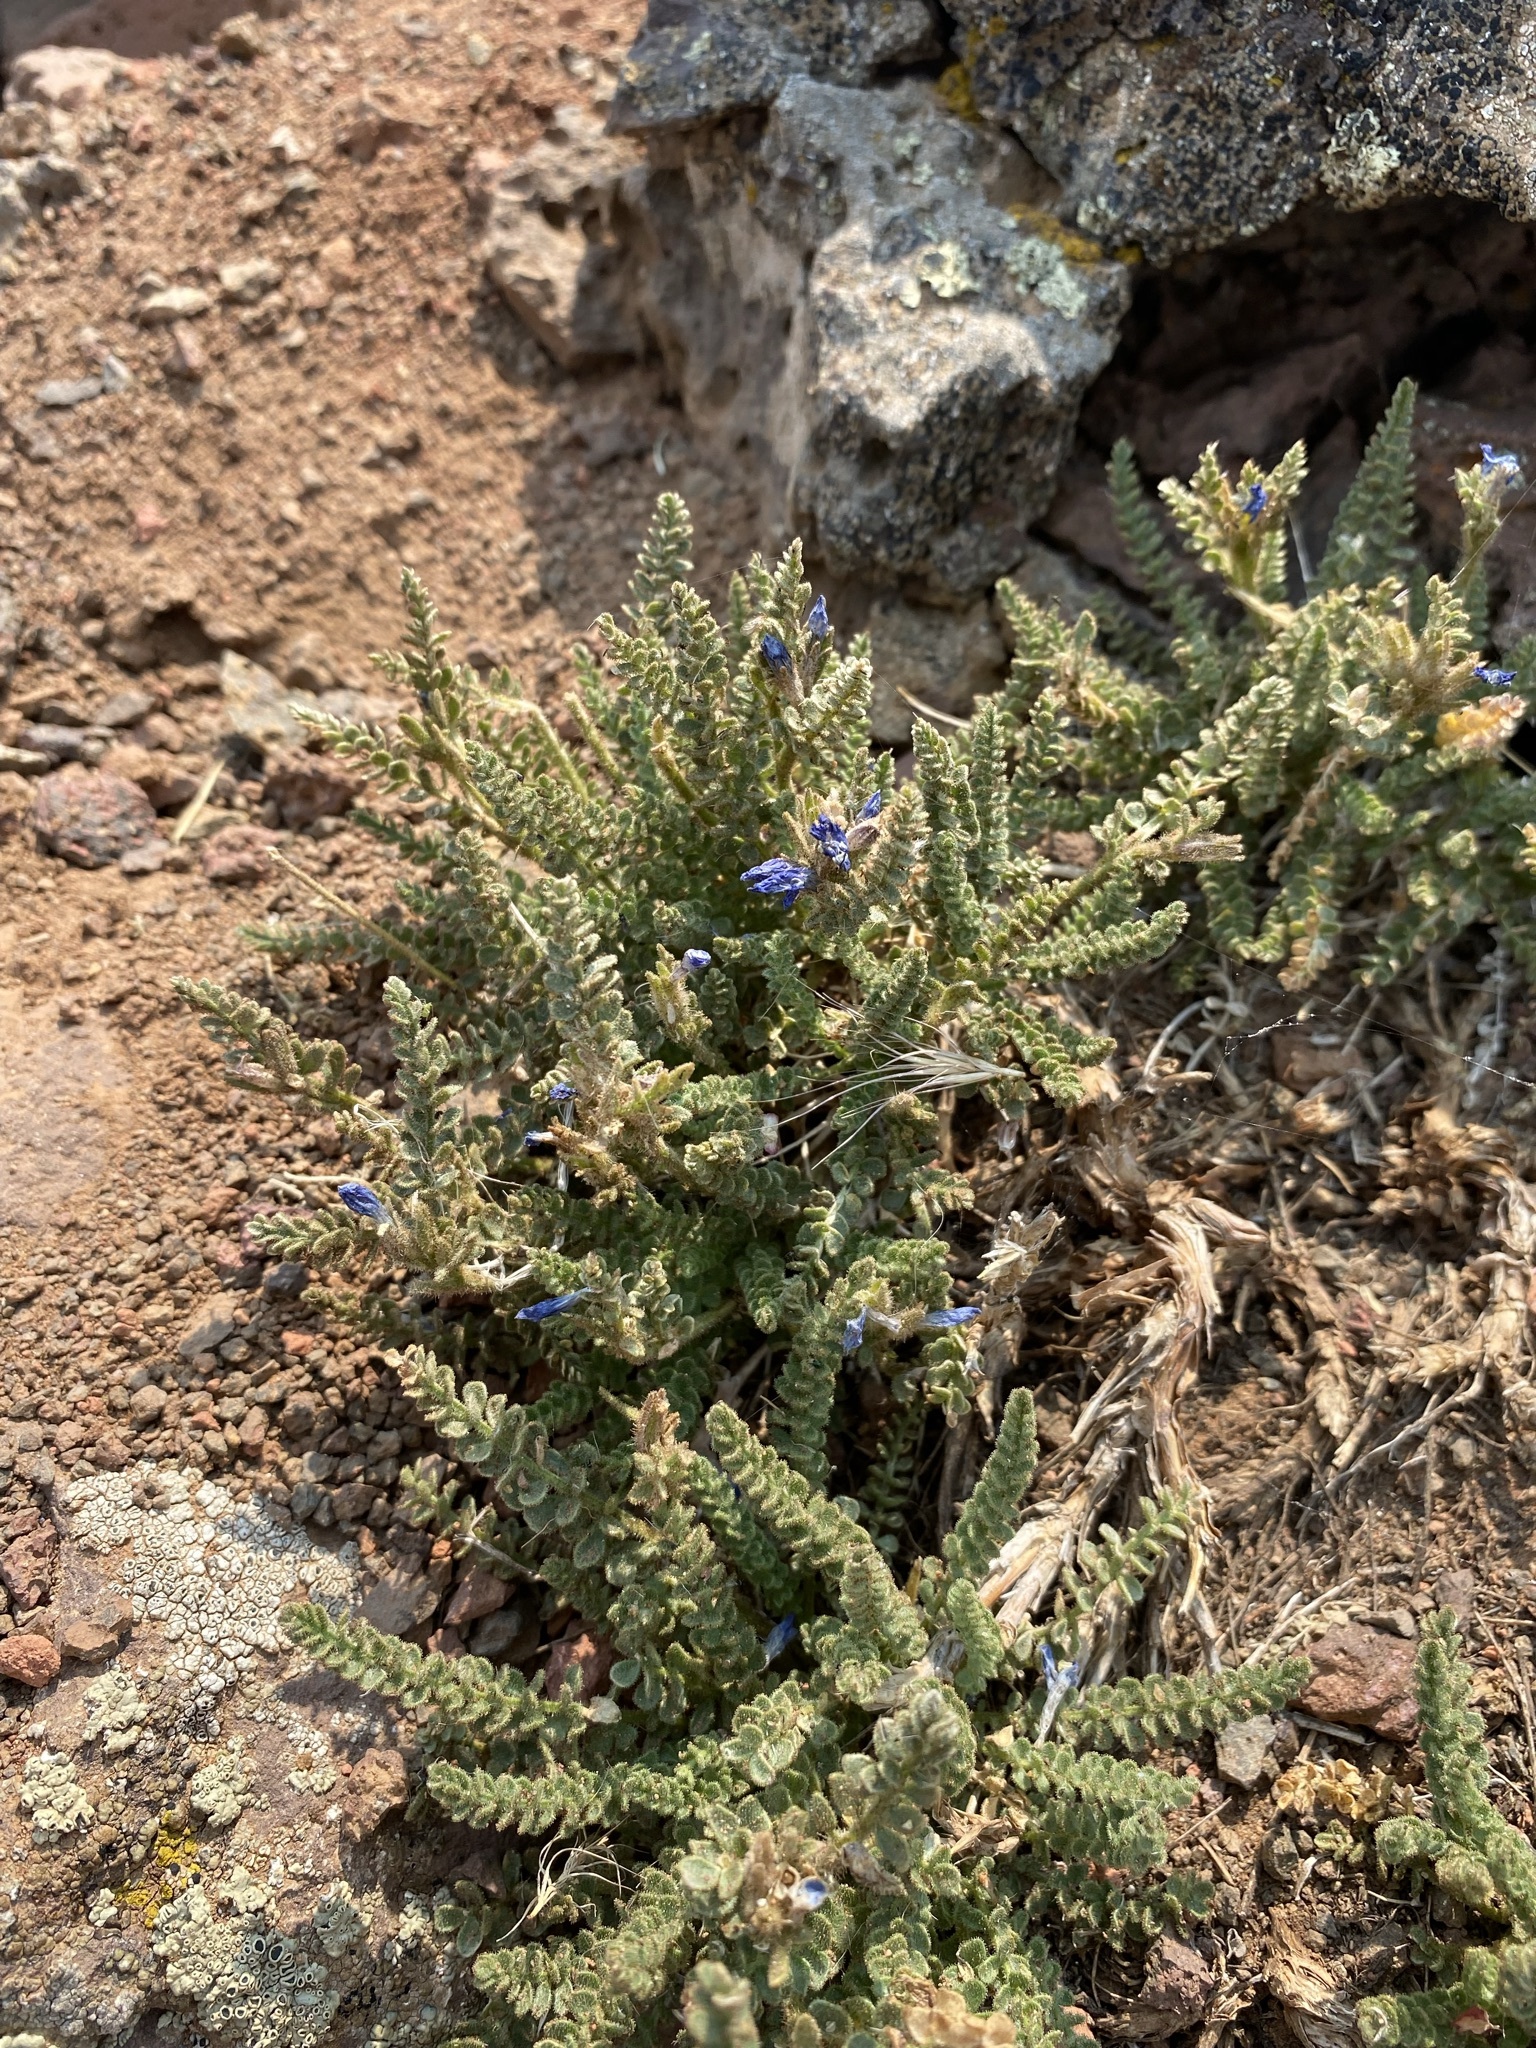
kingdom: Plantae
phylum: Tracheophyta
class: Magnoliopsida
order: Ericales
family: Polemoniaceae
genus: Polemonium
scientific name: Polemonium viscosum
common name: Skunk jacob's-ladder
